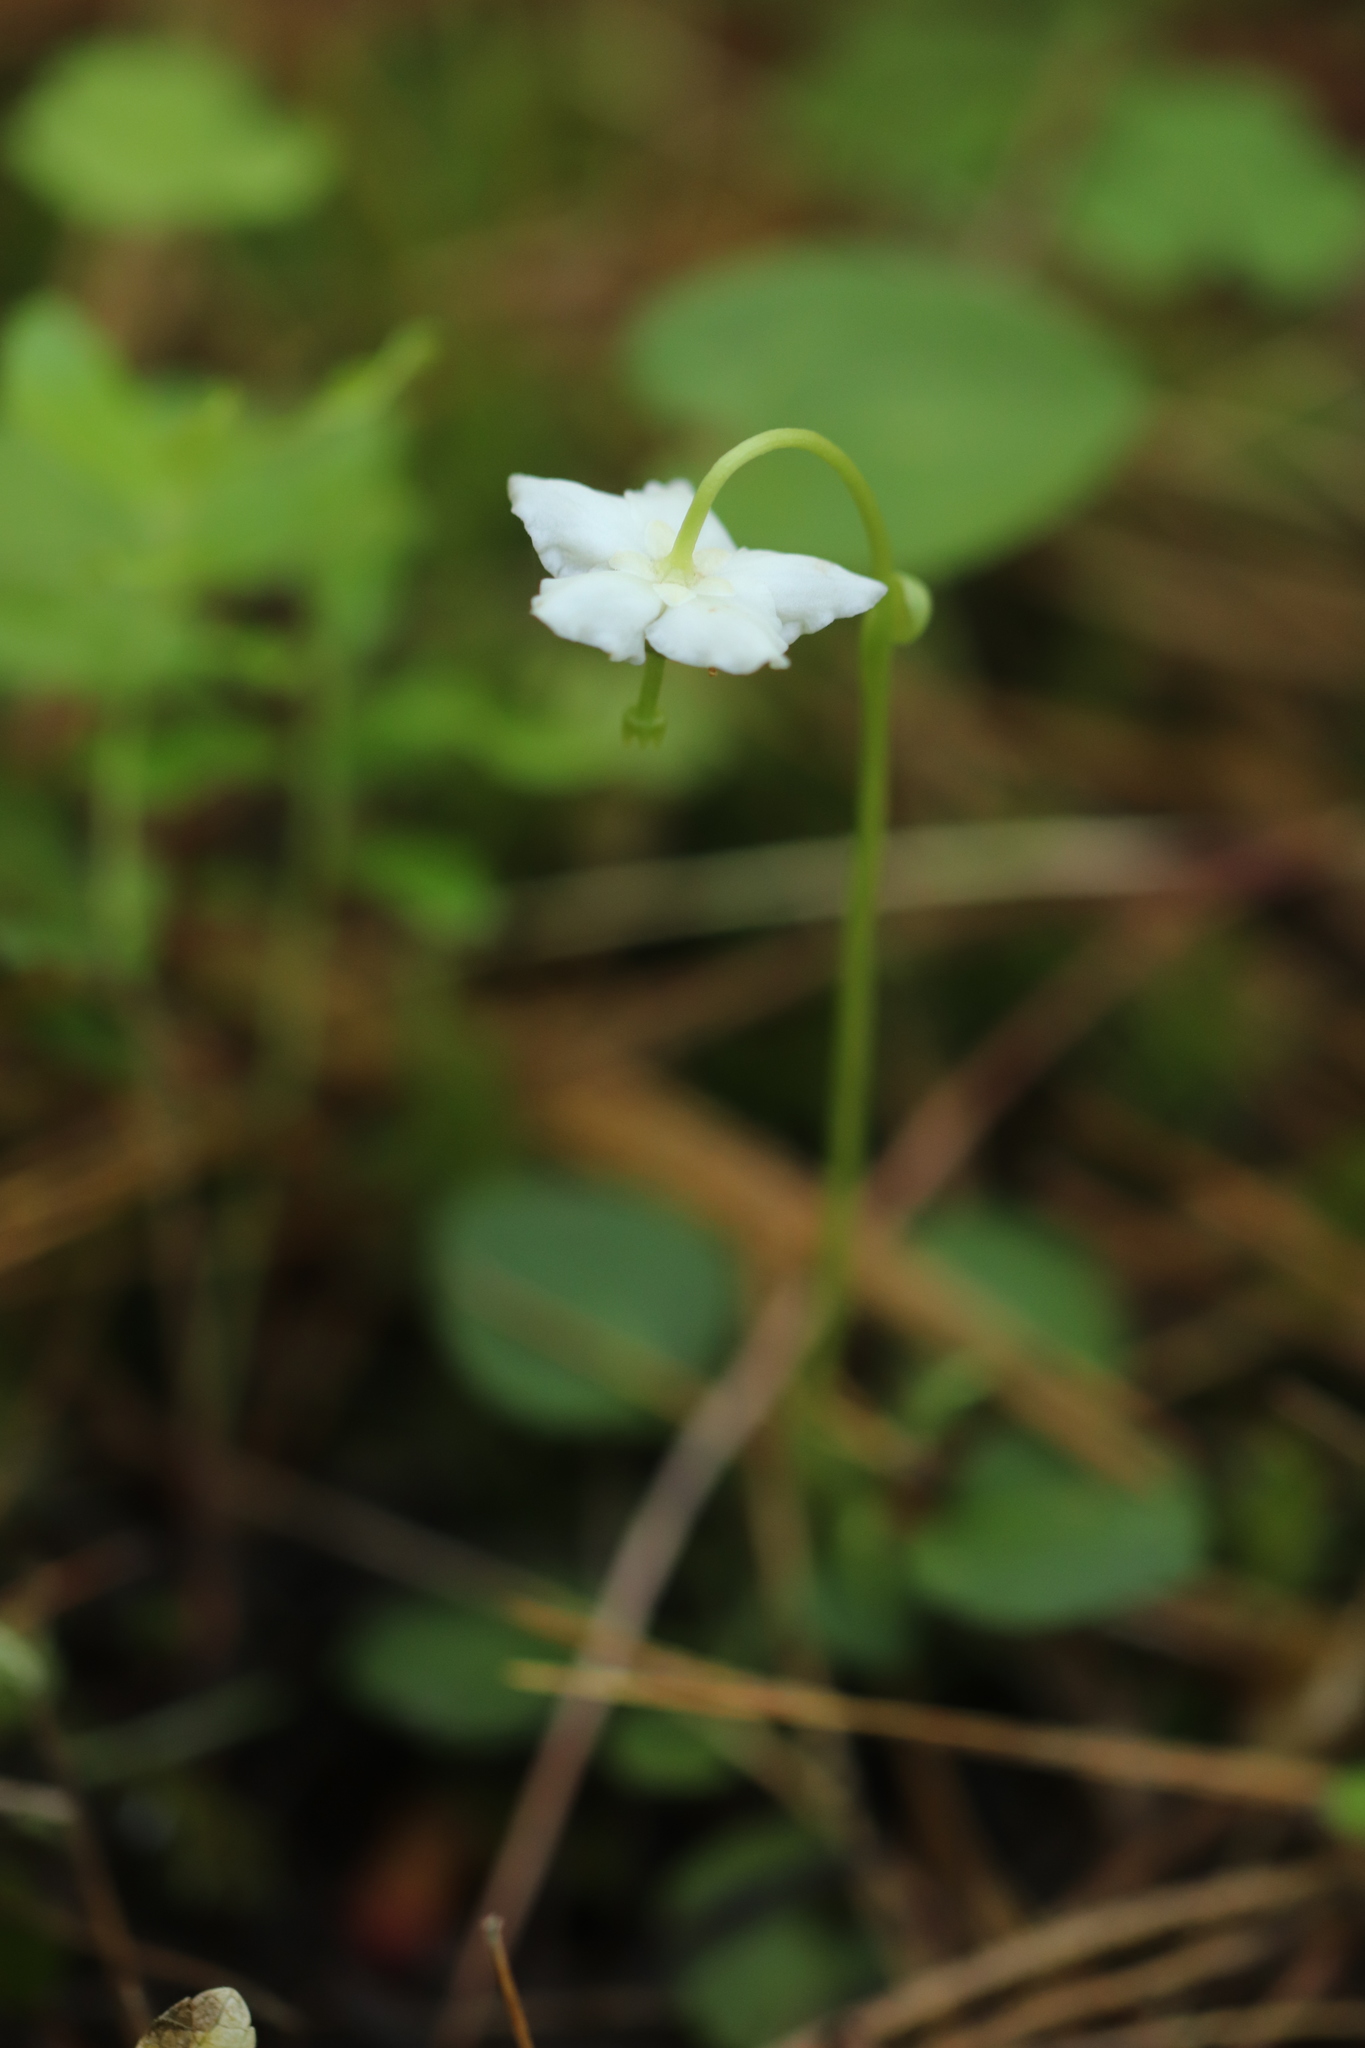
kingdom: Plantae
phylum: Tracheophyta
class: Magnoliopsida
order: Ericales
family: Ericaceae
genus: Moneses
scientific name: Moneses uniflora
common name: One-flowered wintergreen
